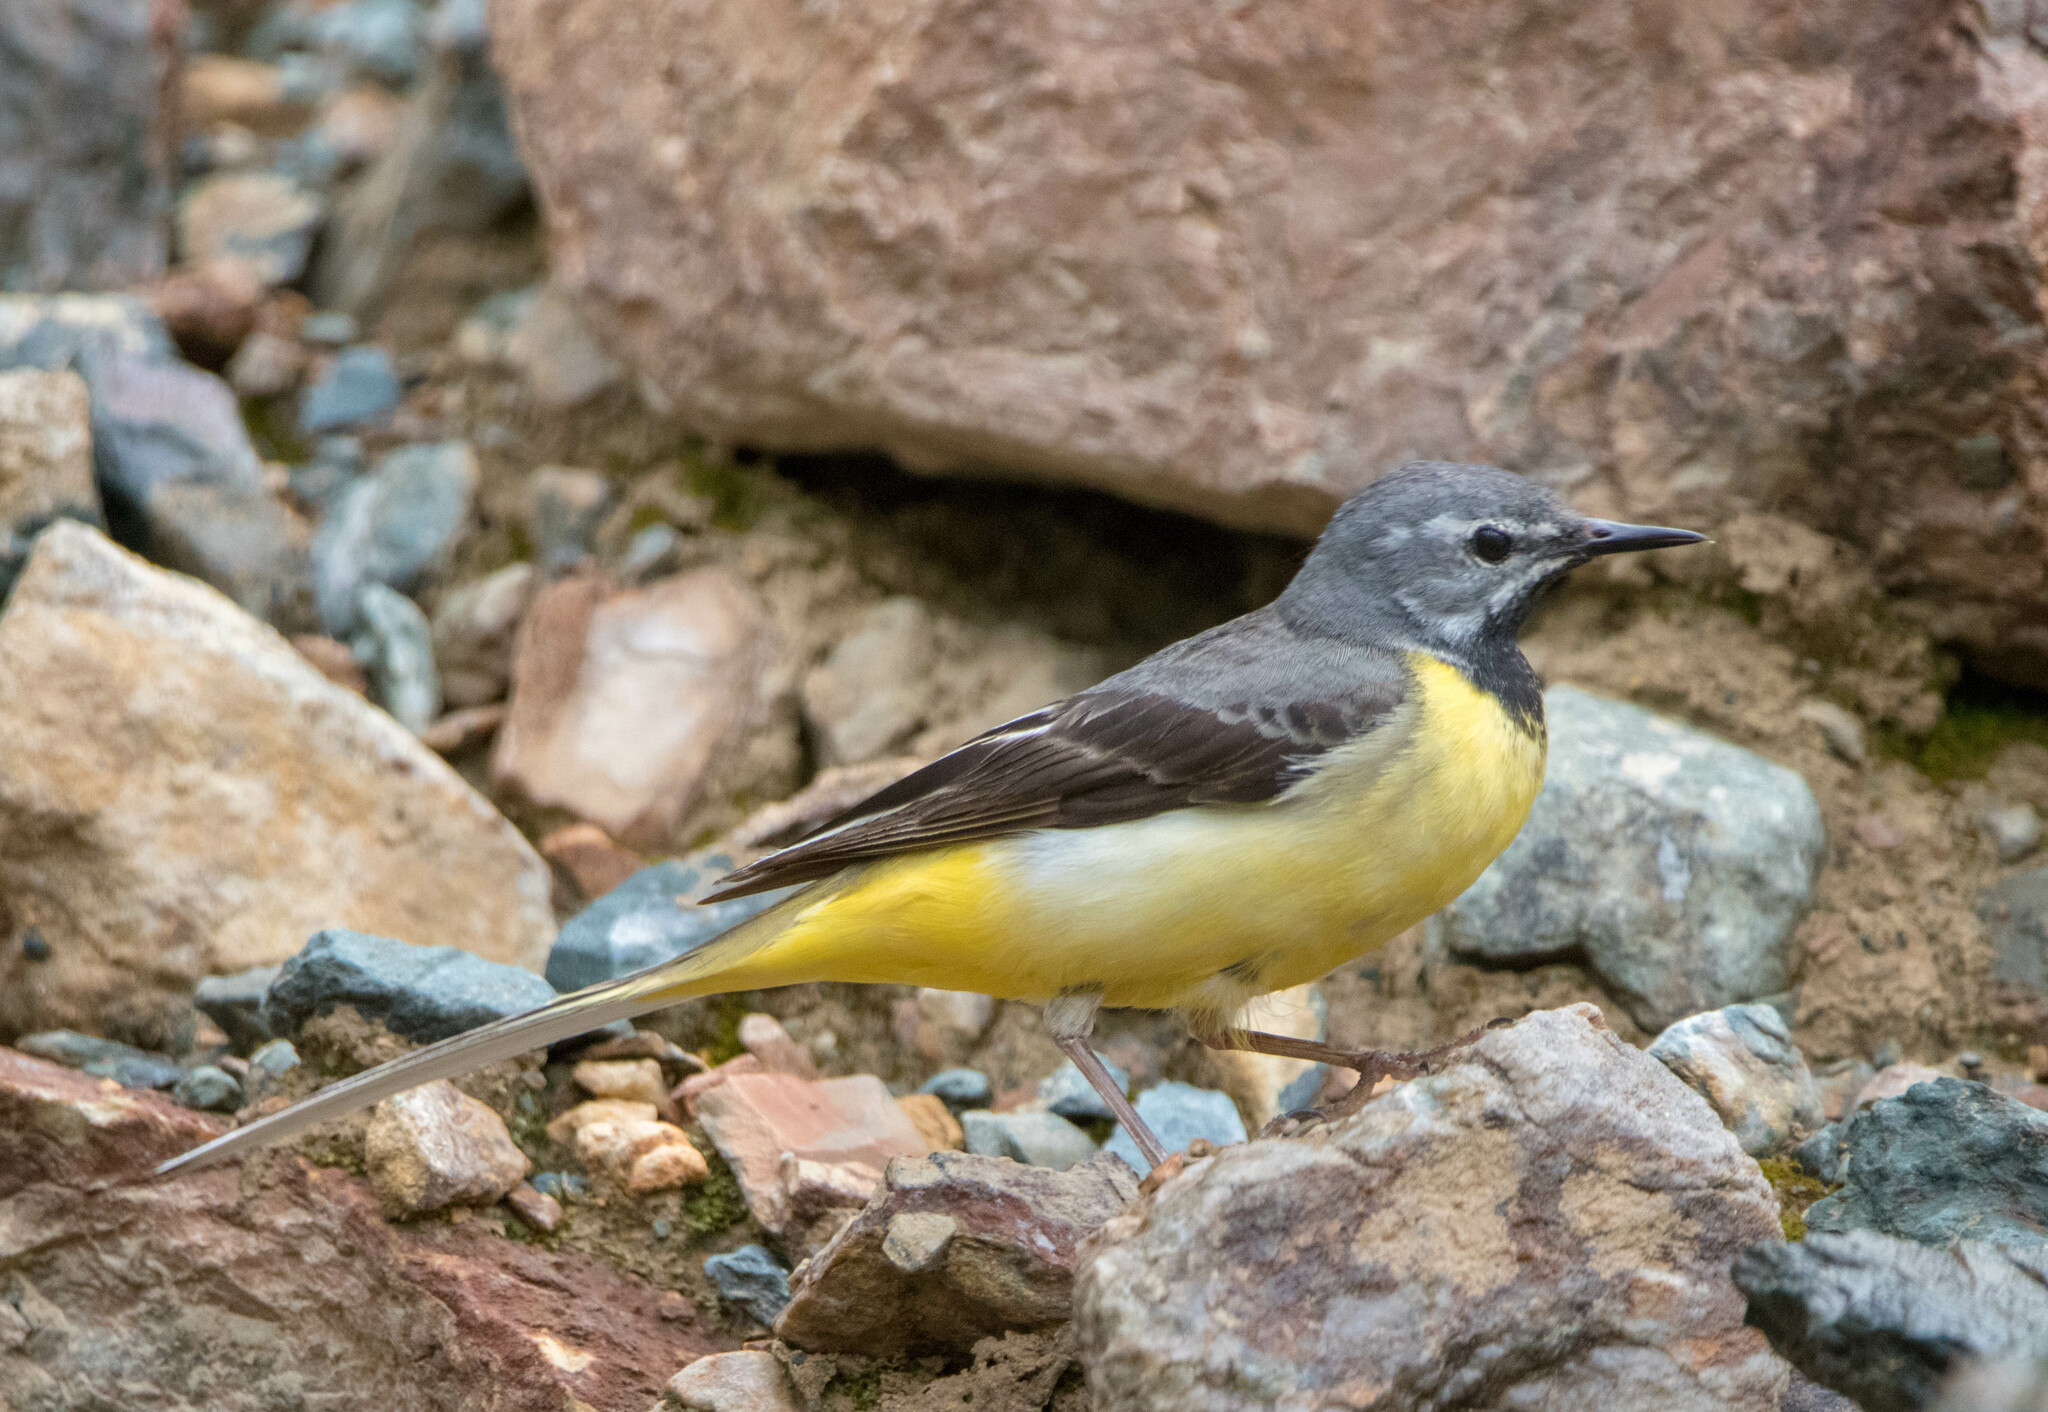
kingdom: Animalia
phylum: Chordata
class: Aves
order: Passeriformes
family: Motacillidae
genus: Motacilla
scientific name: Motacilla cinerea
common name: Grey wagtail
